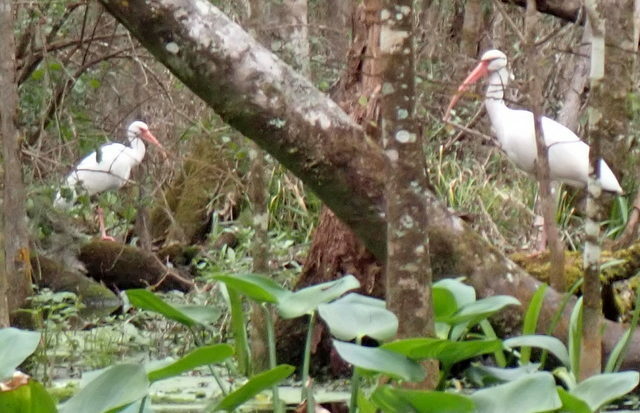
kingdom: Animalia
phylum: Chordata
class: Aves
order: Pelecaniformes
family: Threskiornithidae
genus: Eudocimus
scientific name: Eudocimus albus
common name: White ibis
